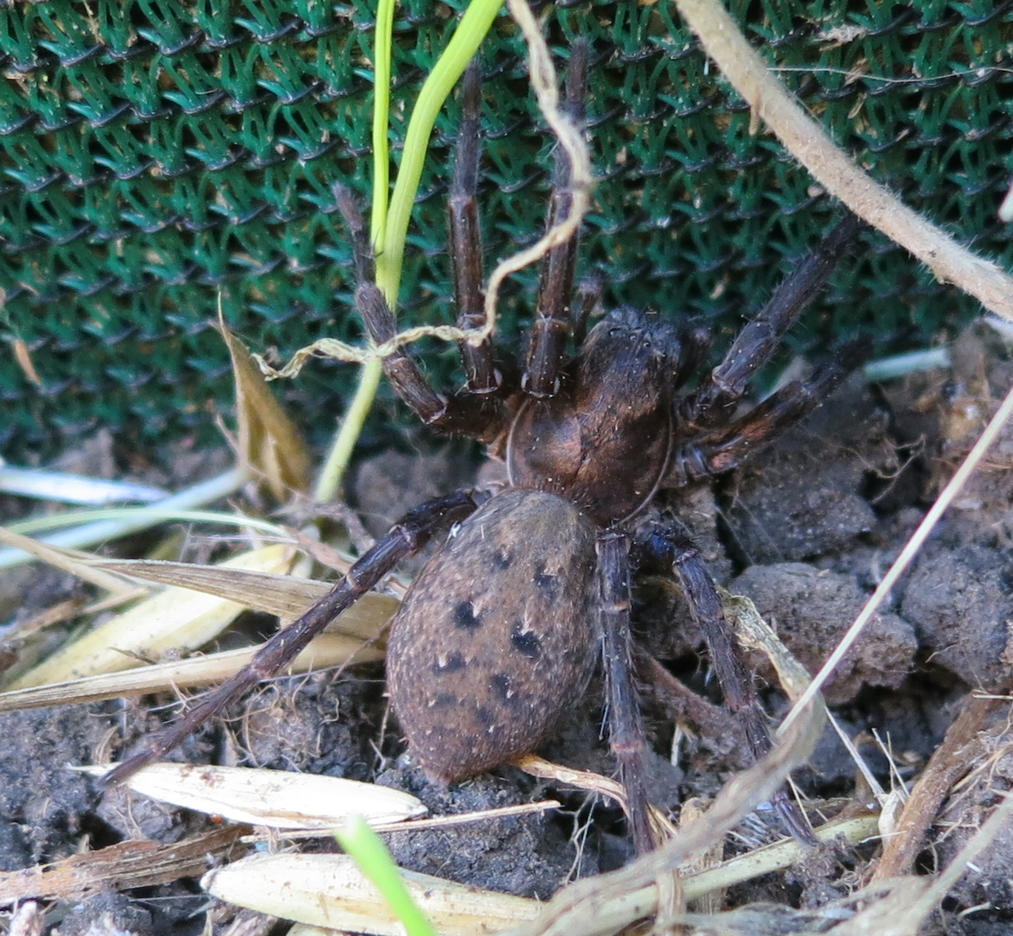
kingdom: Animalia
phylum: Arthropoda
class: Arachnida
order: Araneae
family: Zoropsidae
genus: Uliodon
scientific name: Uliodon albopunctatus
